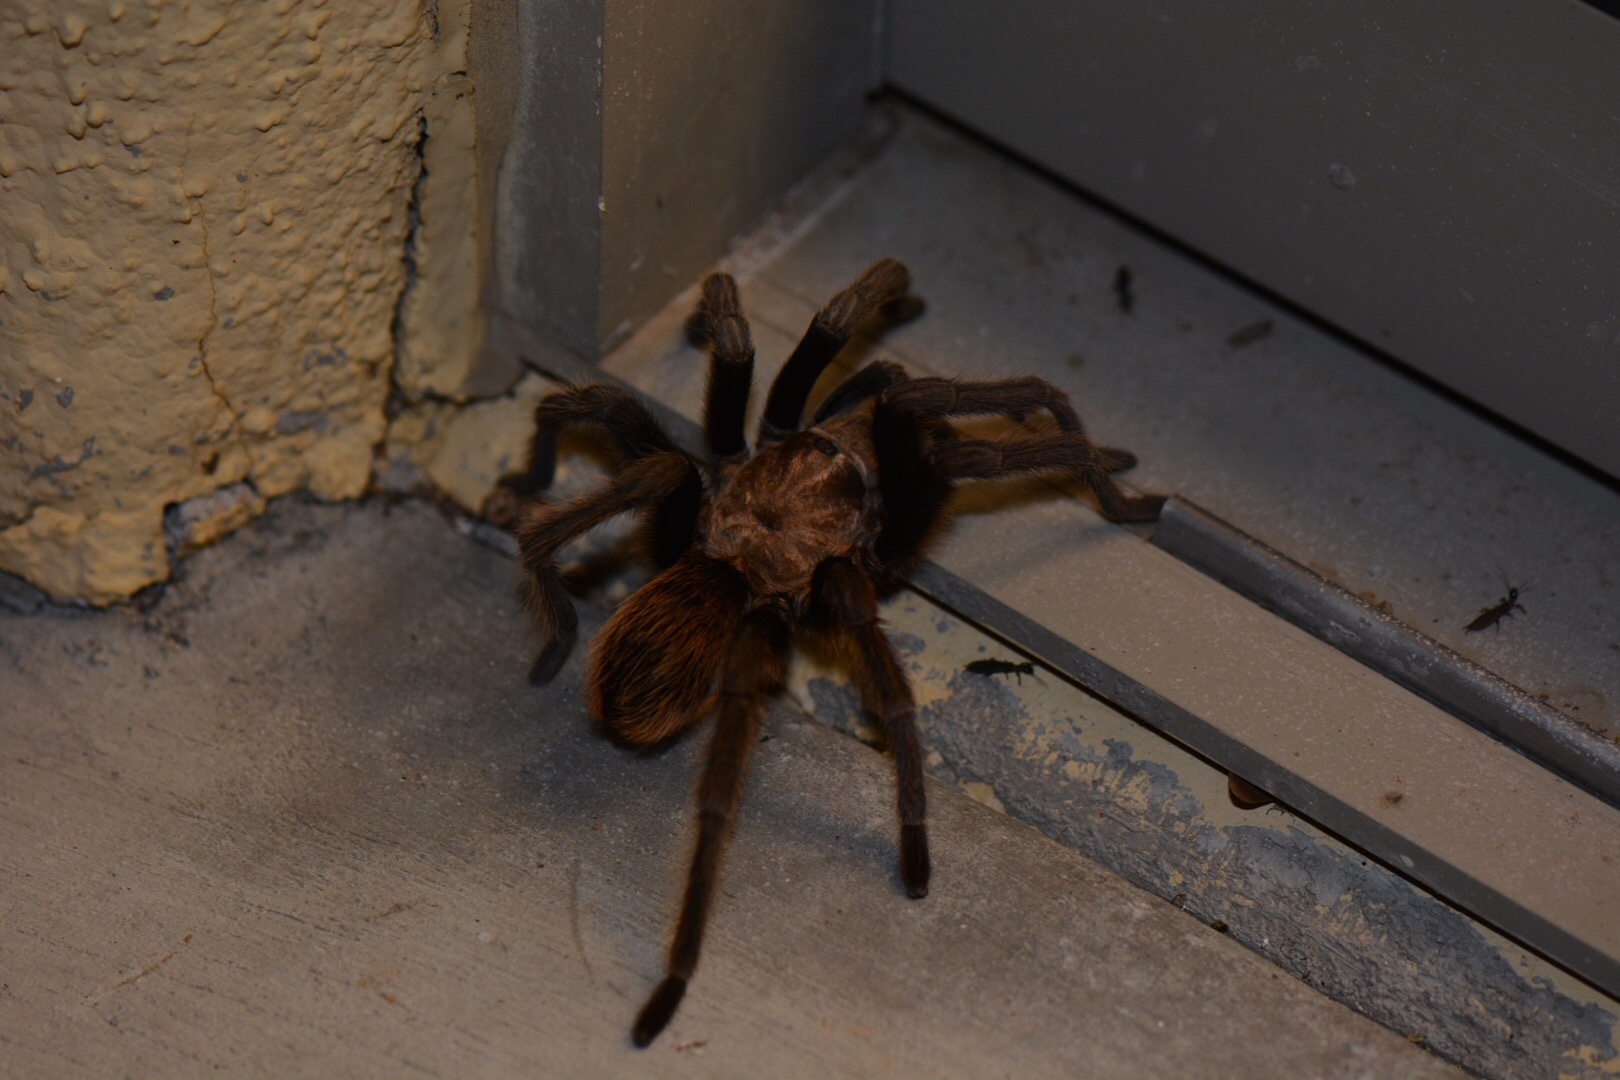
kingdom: Animalia
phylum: Arthropoda
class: Arachnida
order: Araneae
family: Theraphosidae
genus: Aphonopelma
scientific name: Aphonopelma chalcodes
